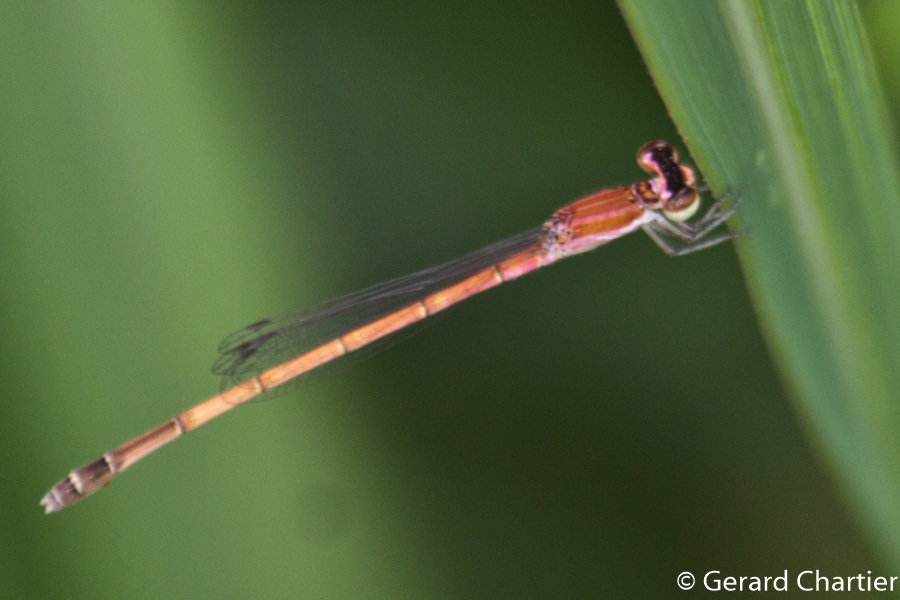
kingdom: Animalia
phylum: Arthropoda
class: Insecta
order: Odonata
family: Coenagrionidae
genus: Agriocnemis
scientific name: Agriocnemis nana
